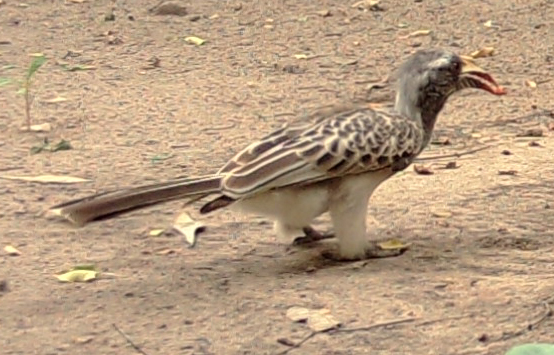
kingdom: Animalia
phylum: Chordata
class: Aves
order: Bucerotiformes
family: Bucerotidae
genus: Lophoceros
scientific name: Lophoceros nasutus
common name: African grey hornbill
